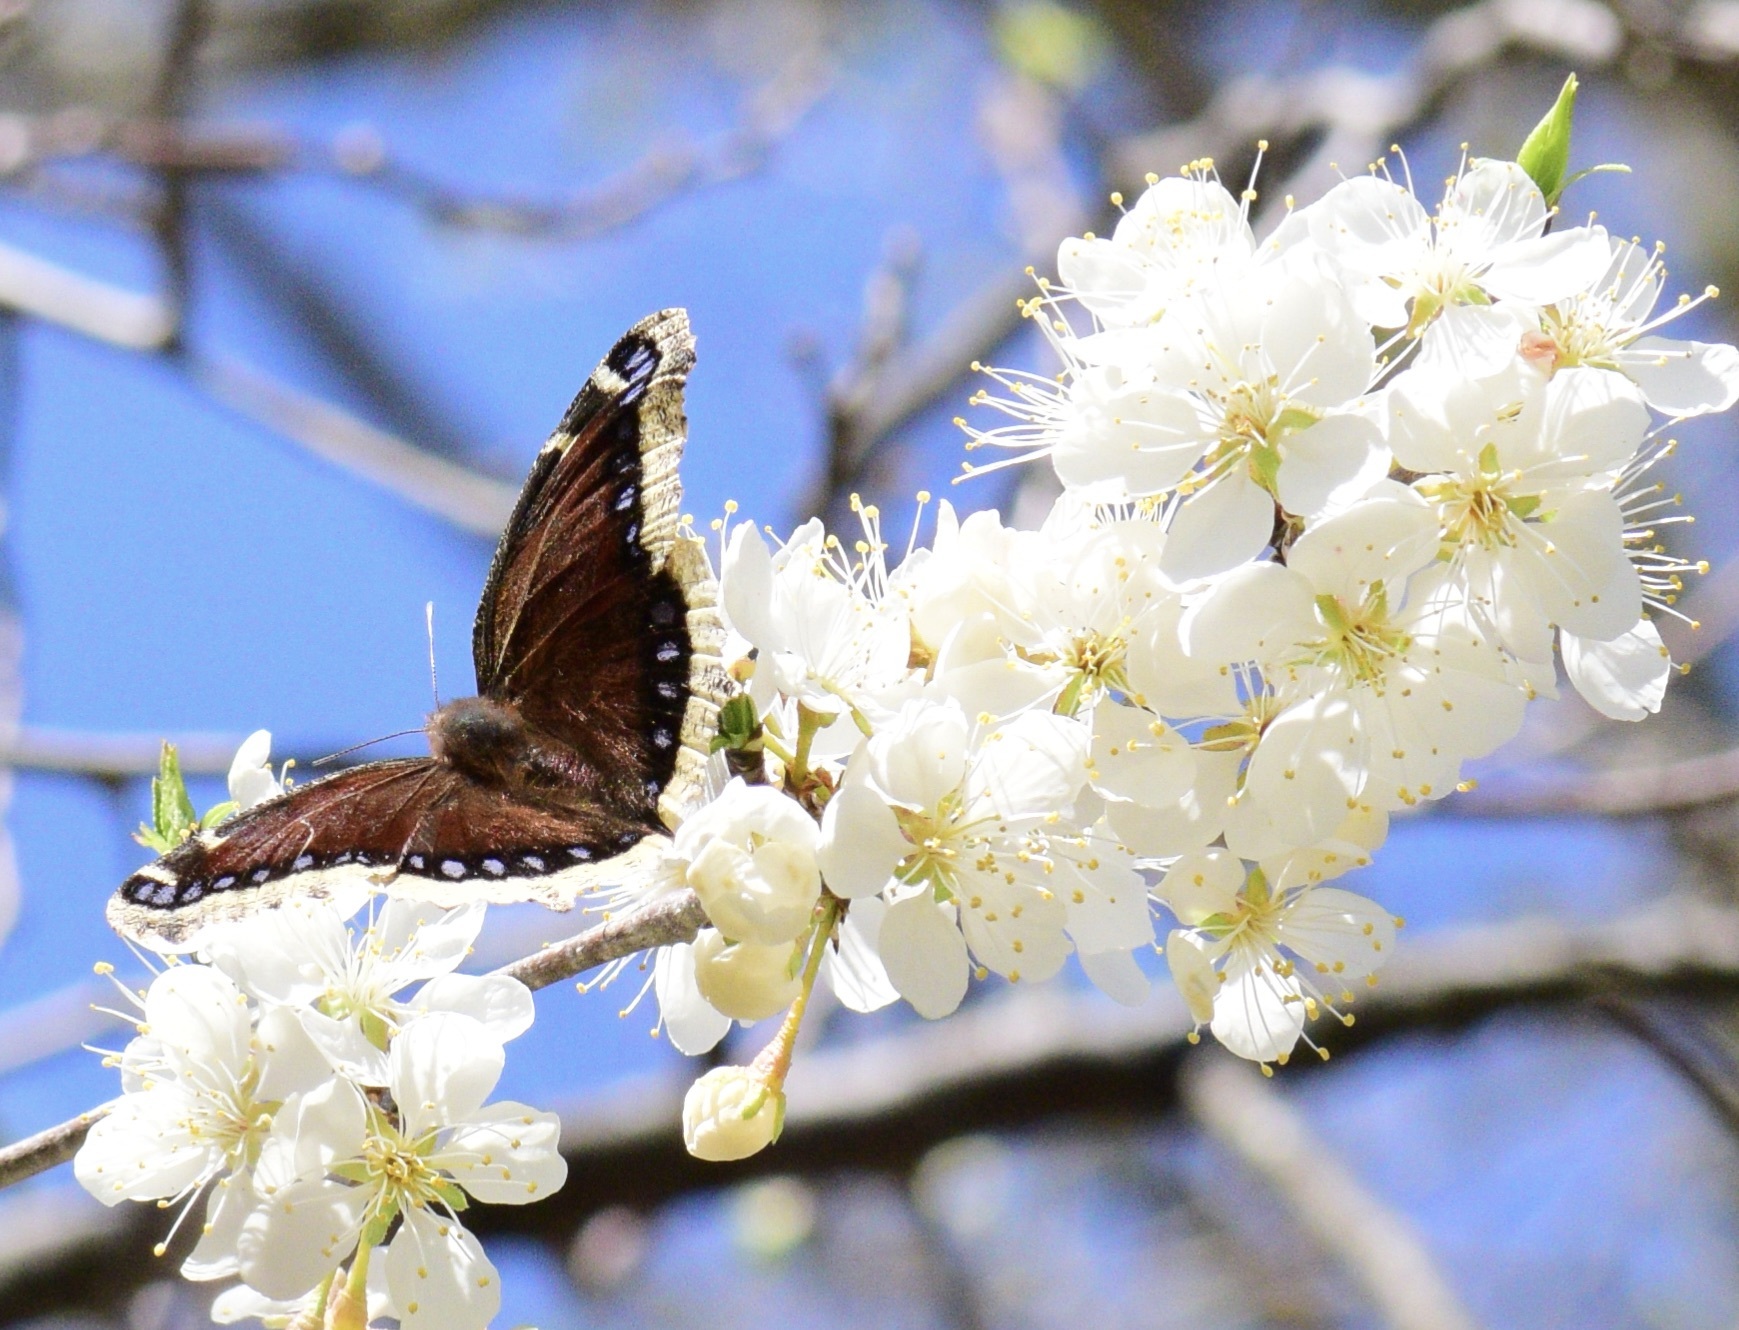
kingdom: Animalia
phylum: Arthropoda
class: Insecta
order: Lepidoptera
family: Nymphalidae
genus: Nymphalis
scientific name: Nymphalis antiopa
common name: Camberwell beauty
